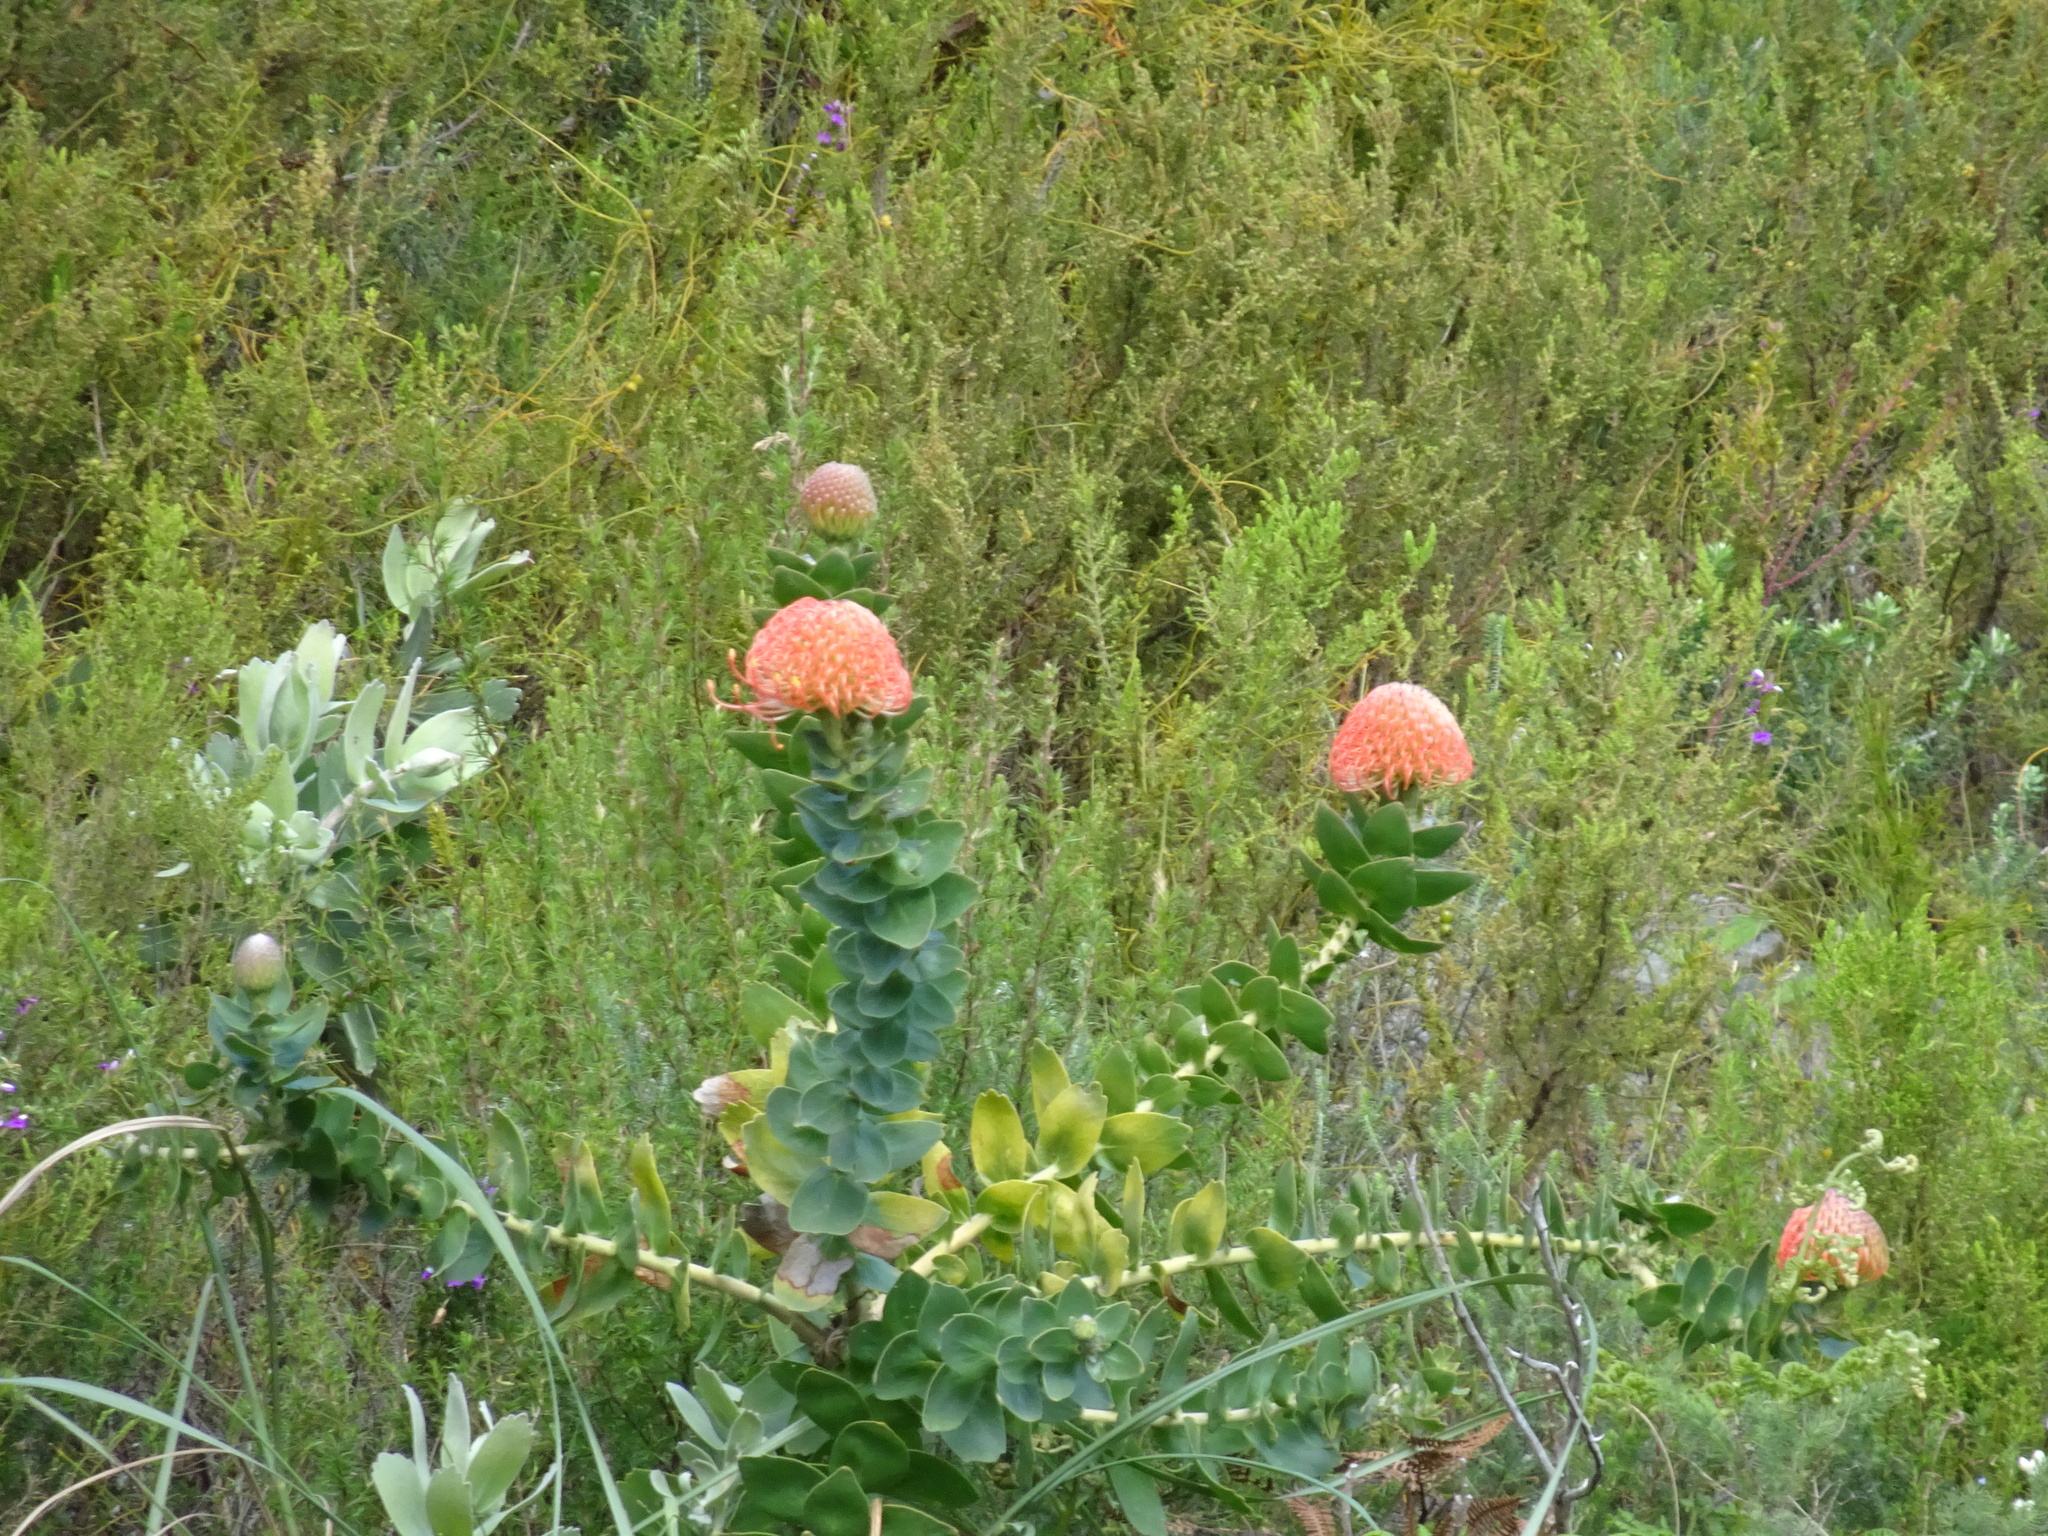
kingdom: Plantae
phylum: Tracheophyta
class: Magnoliopsida
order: Proteales
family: Proteaceae
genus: Leucospermum
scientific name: Leucospermum cordifolium
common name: Red pincushion-protea
